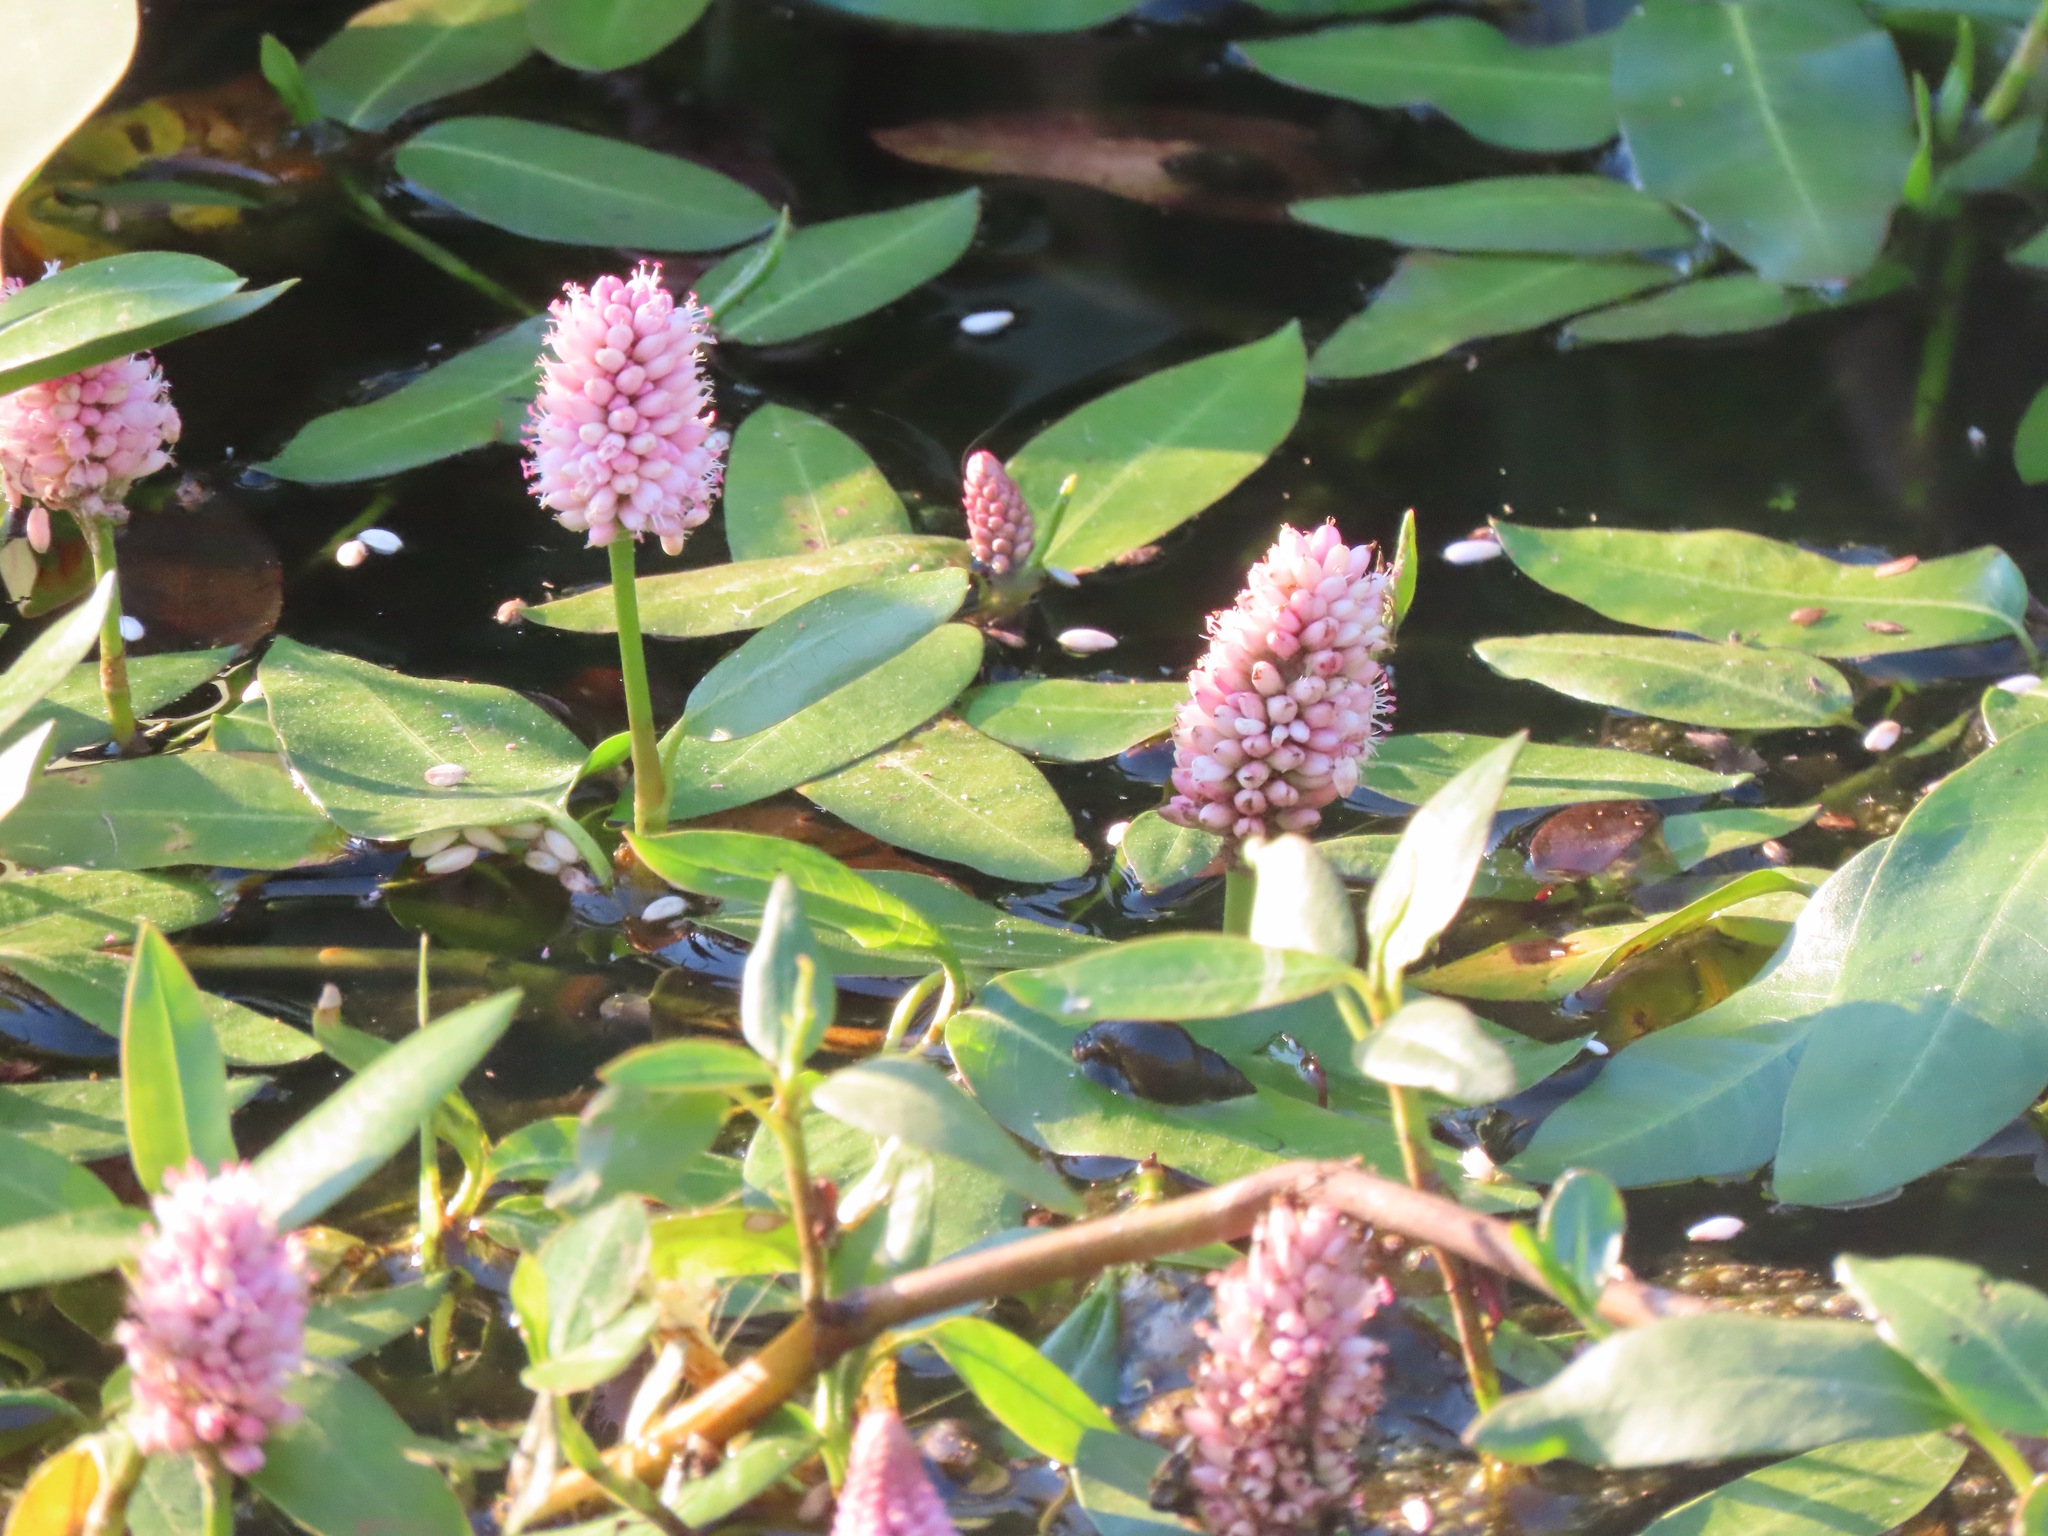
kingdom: Plantae
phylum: Tracheophyta
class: Magnoliopsida
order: Caryophyllales
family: Polygonaceae
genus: Persicaria
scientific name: Persicaria amphibia
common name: Amphibious bistort
